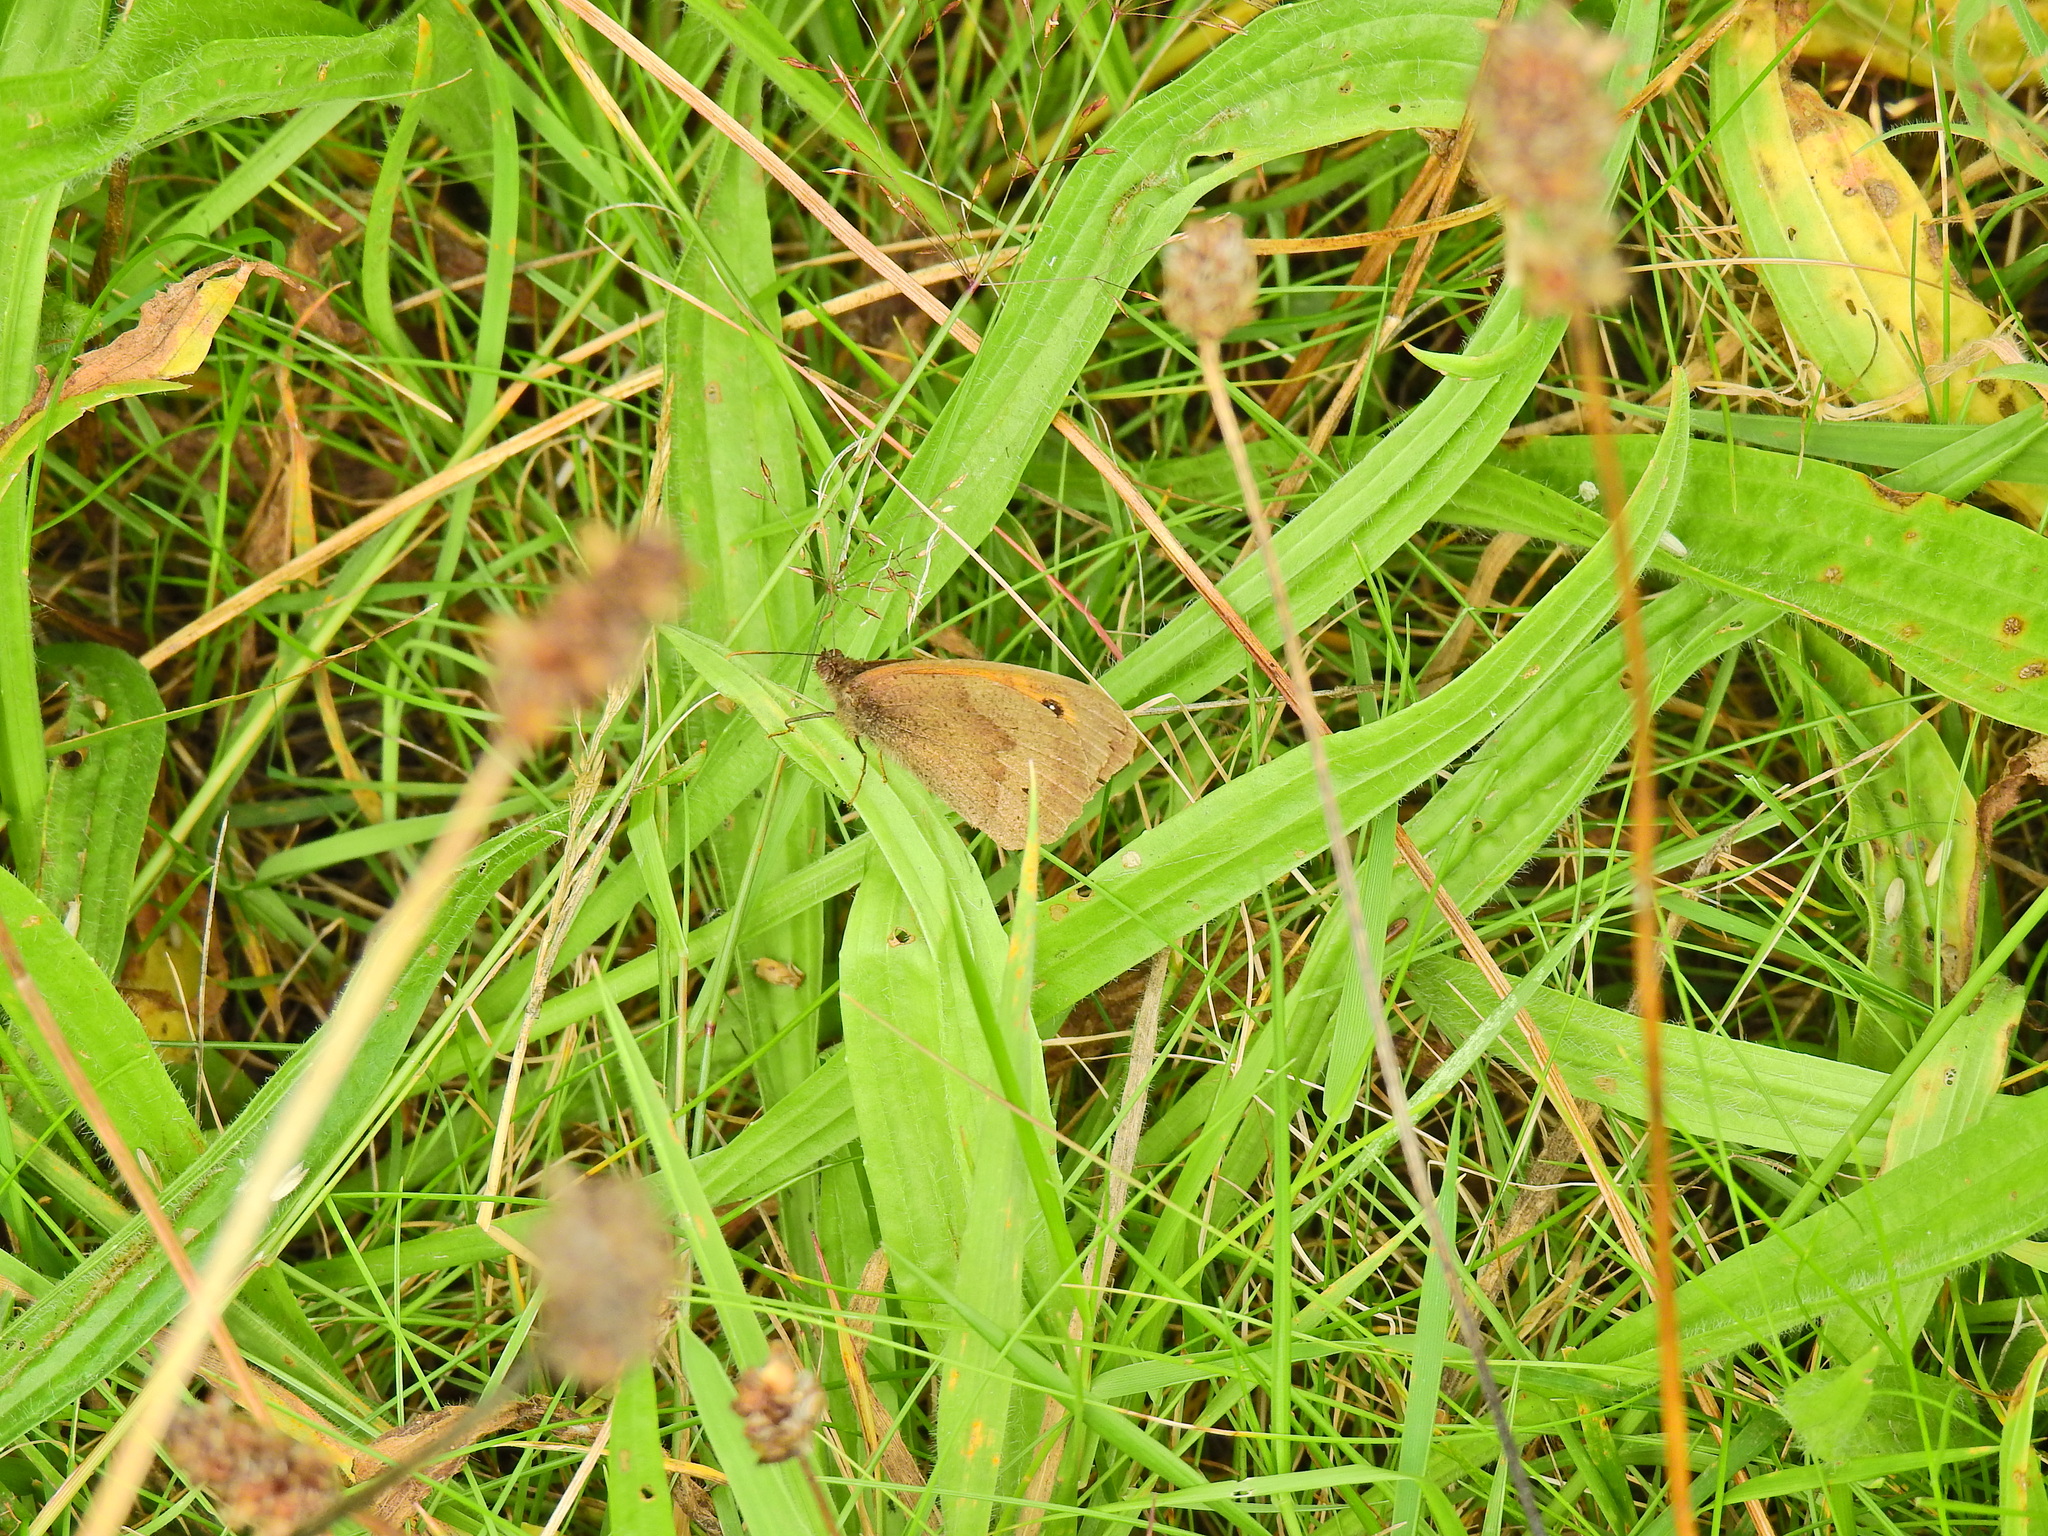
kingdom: Animalia
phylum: Arthropoda
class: Insecta
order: Lepidoptera
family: Nymphalidae
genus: Maniola
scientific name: Maniola jurtina
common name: Meadow brown
